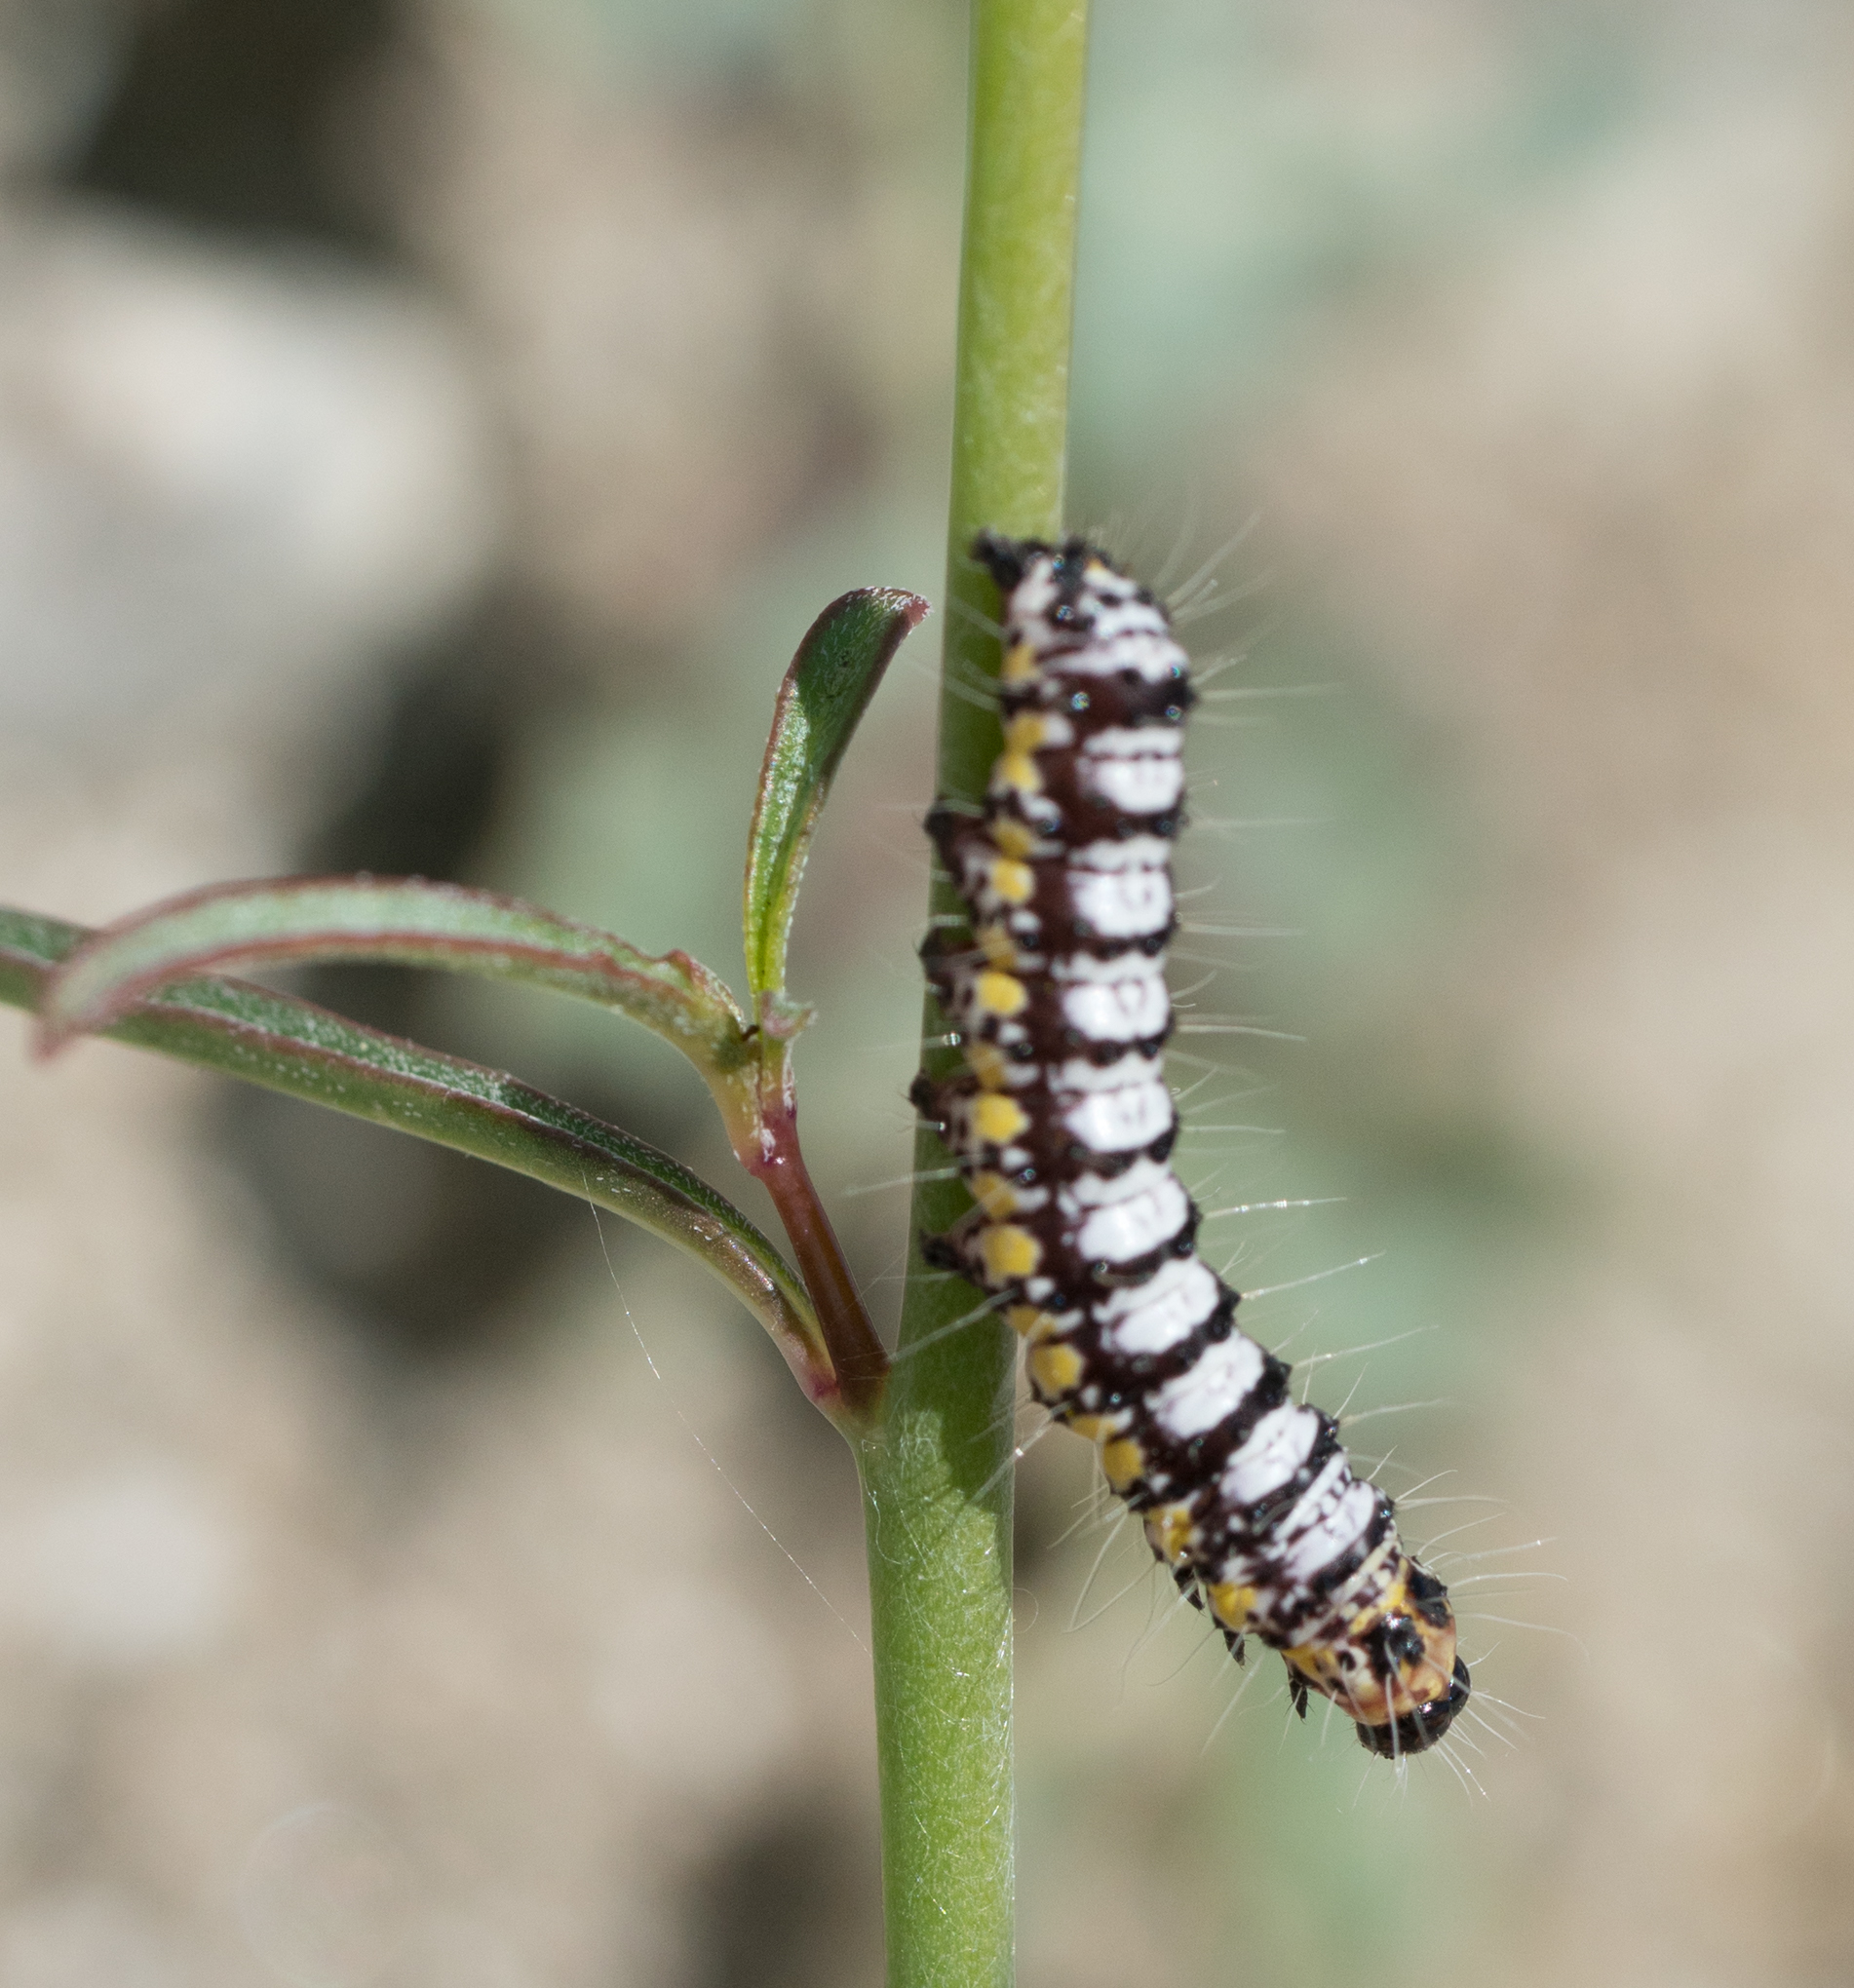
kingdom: Animalia
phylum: Arthropoda
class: Insecta
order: Lepidoptera
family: Noctuidae
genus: Alypia
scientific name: Alypia ridingsii
